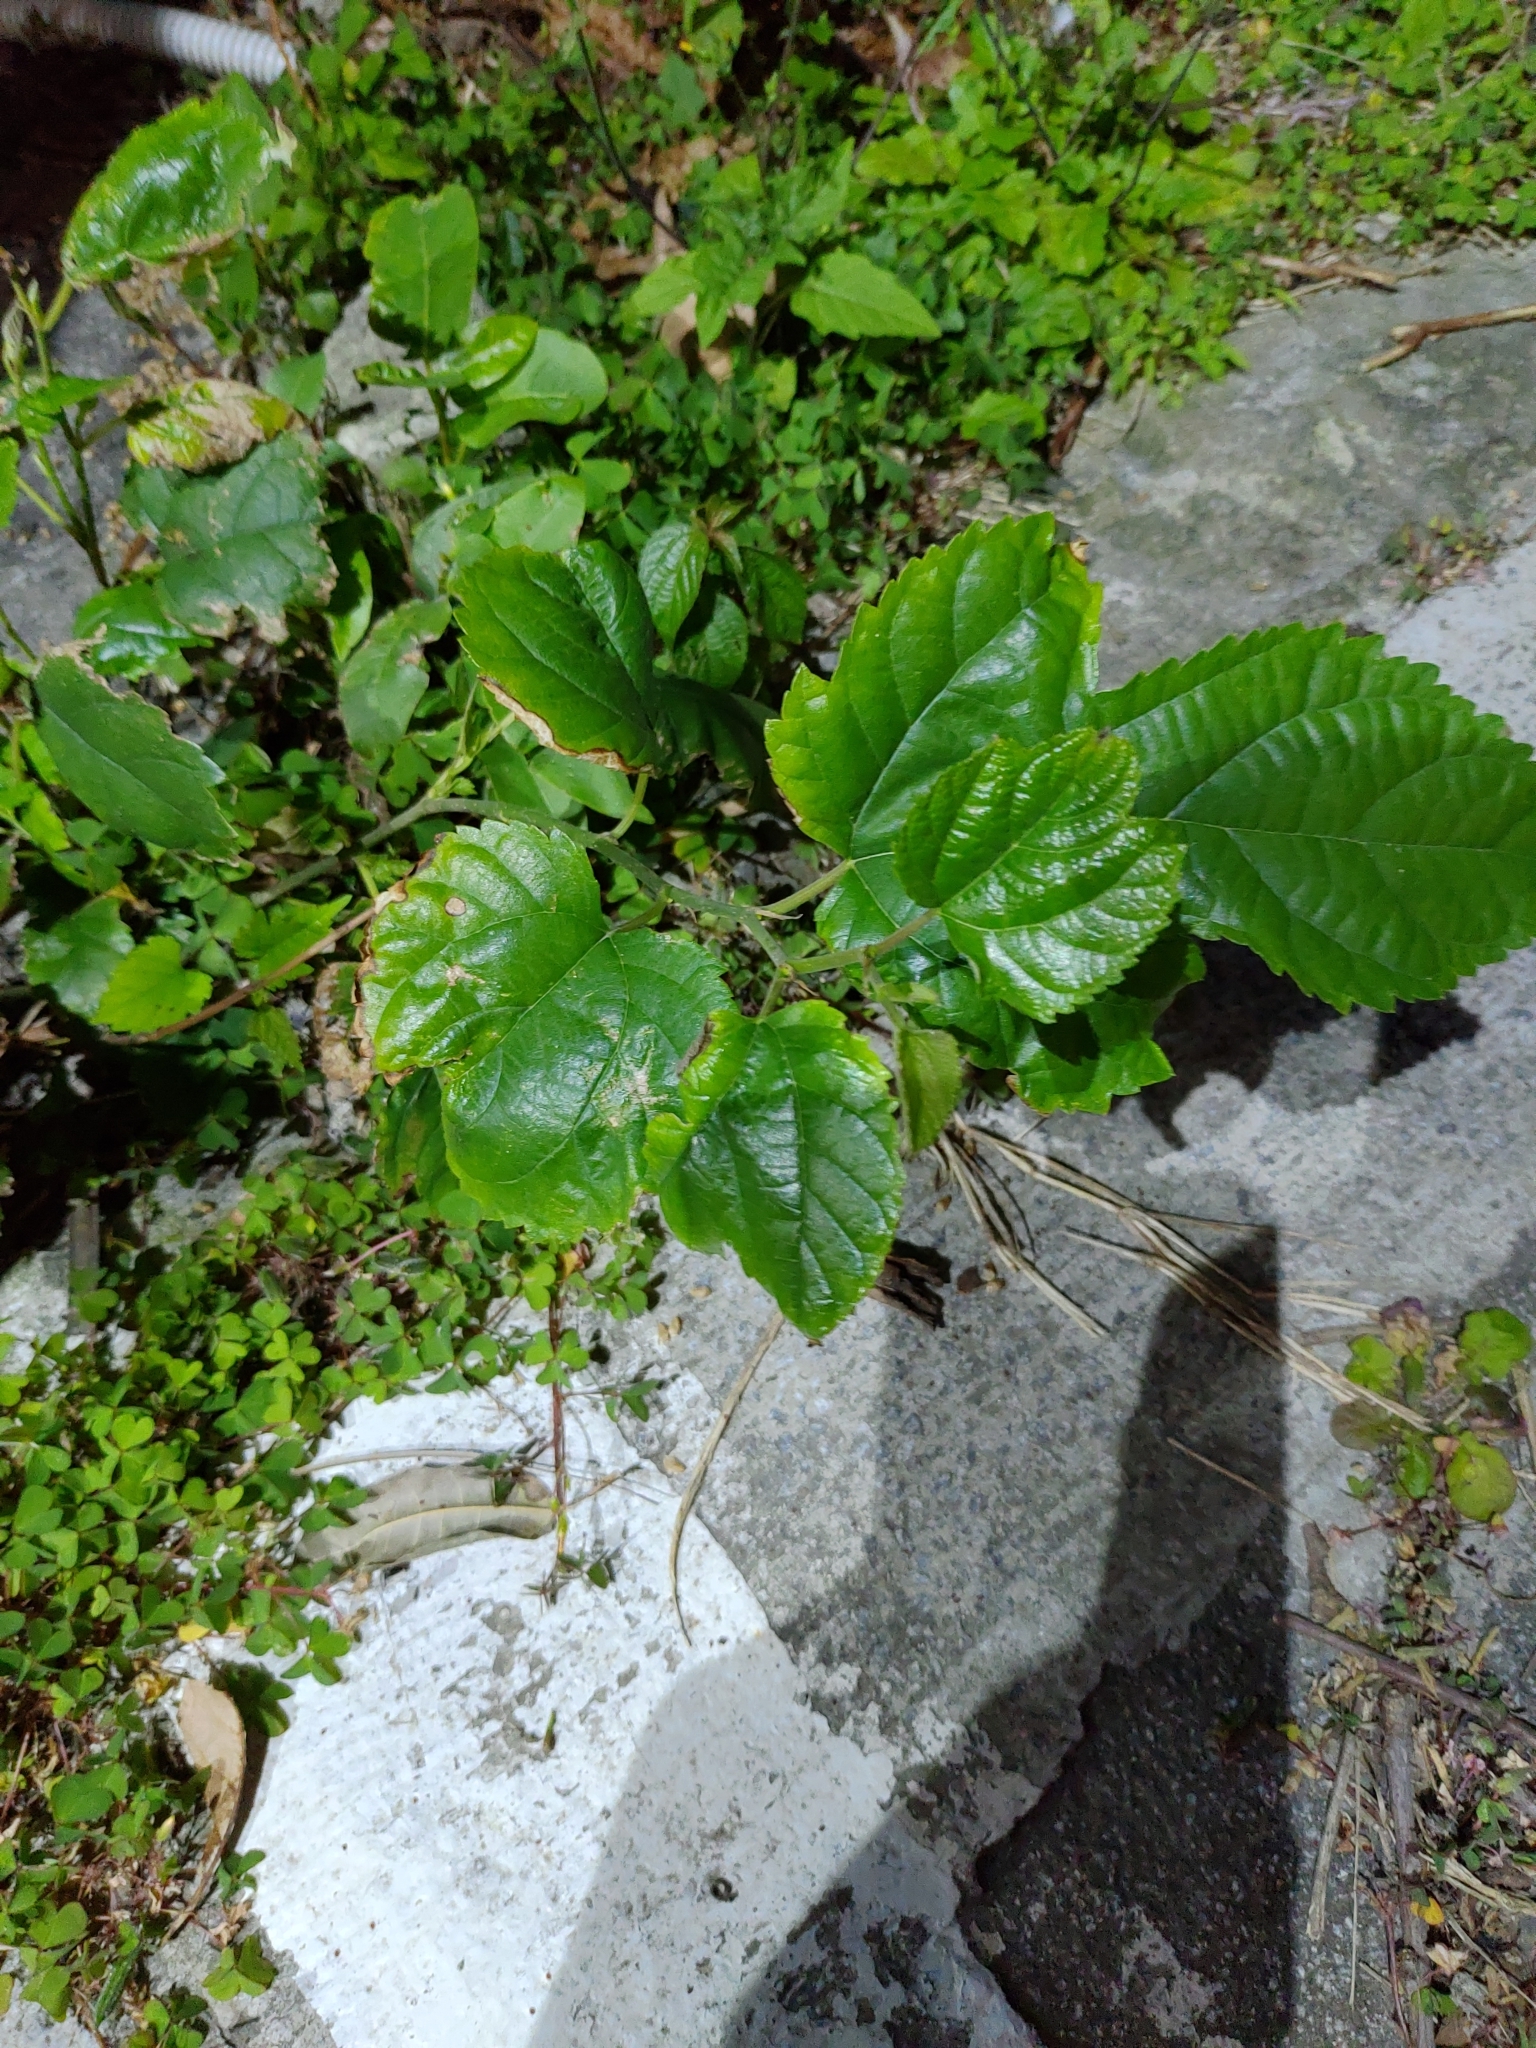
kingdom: Plantae
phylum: Tracheophyta
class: Magnoliopsida
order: Rosales
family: Moraceae
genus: Morus
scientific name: Morus indica
